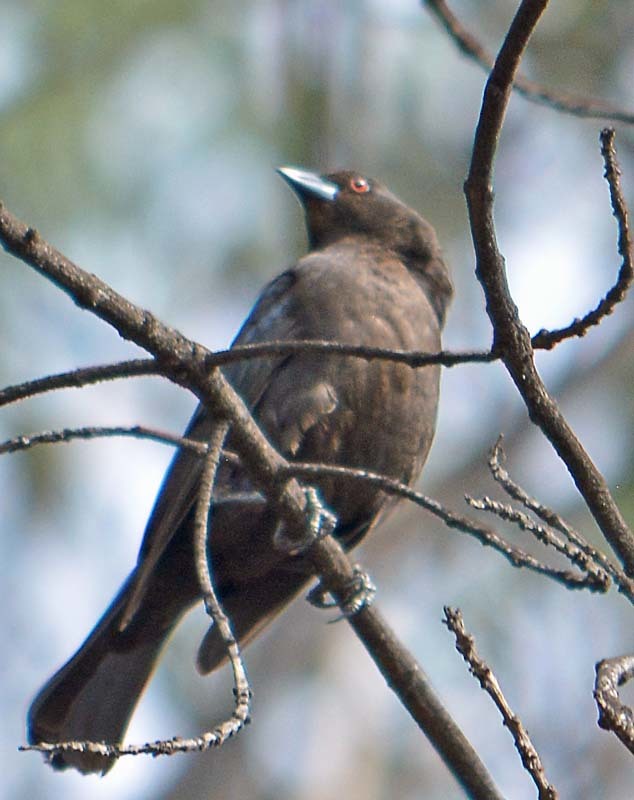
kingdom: Animalia
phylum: Chordata
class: Aves
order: Passeriformes
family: Icteridae
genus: Molothrus
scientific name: Molothrus aeneus
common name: Bronzed cowbird
